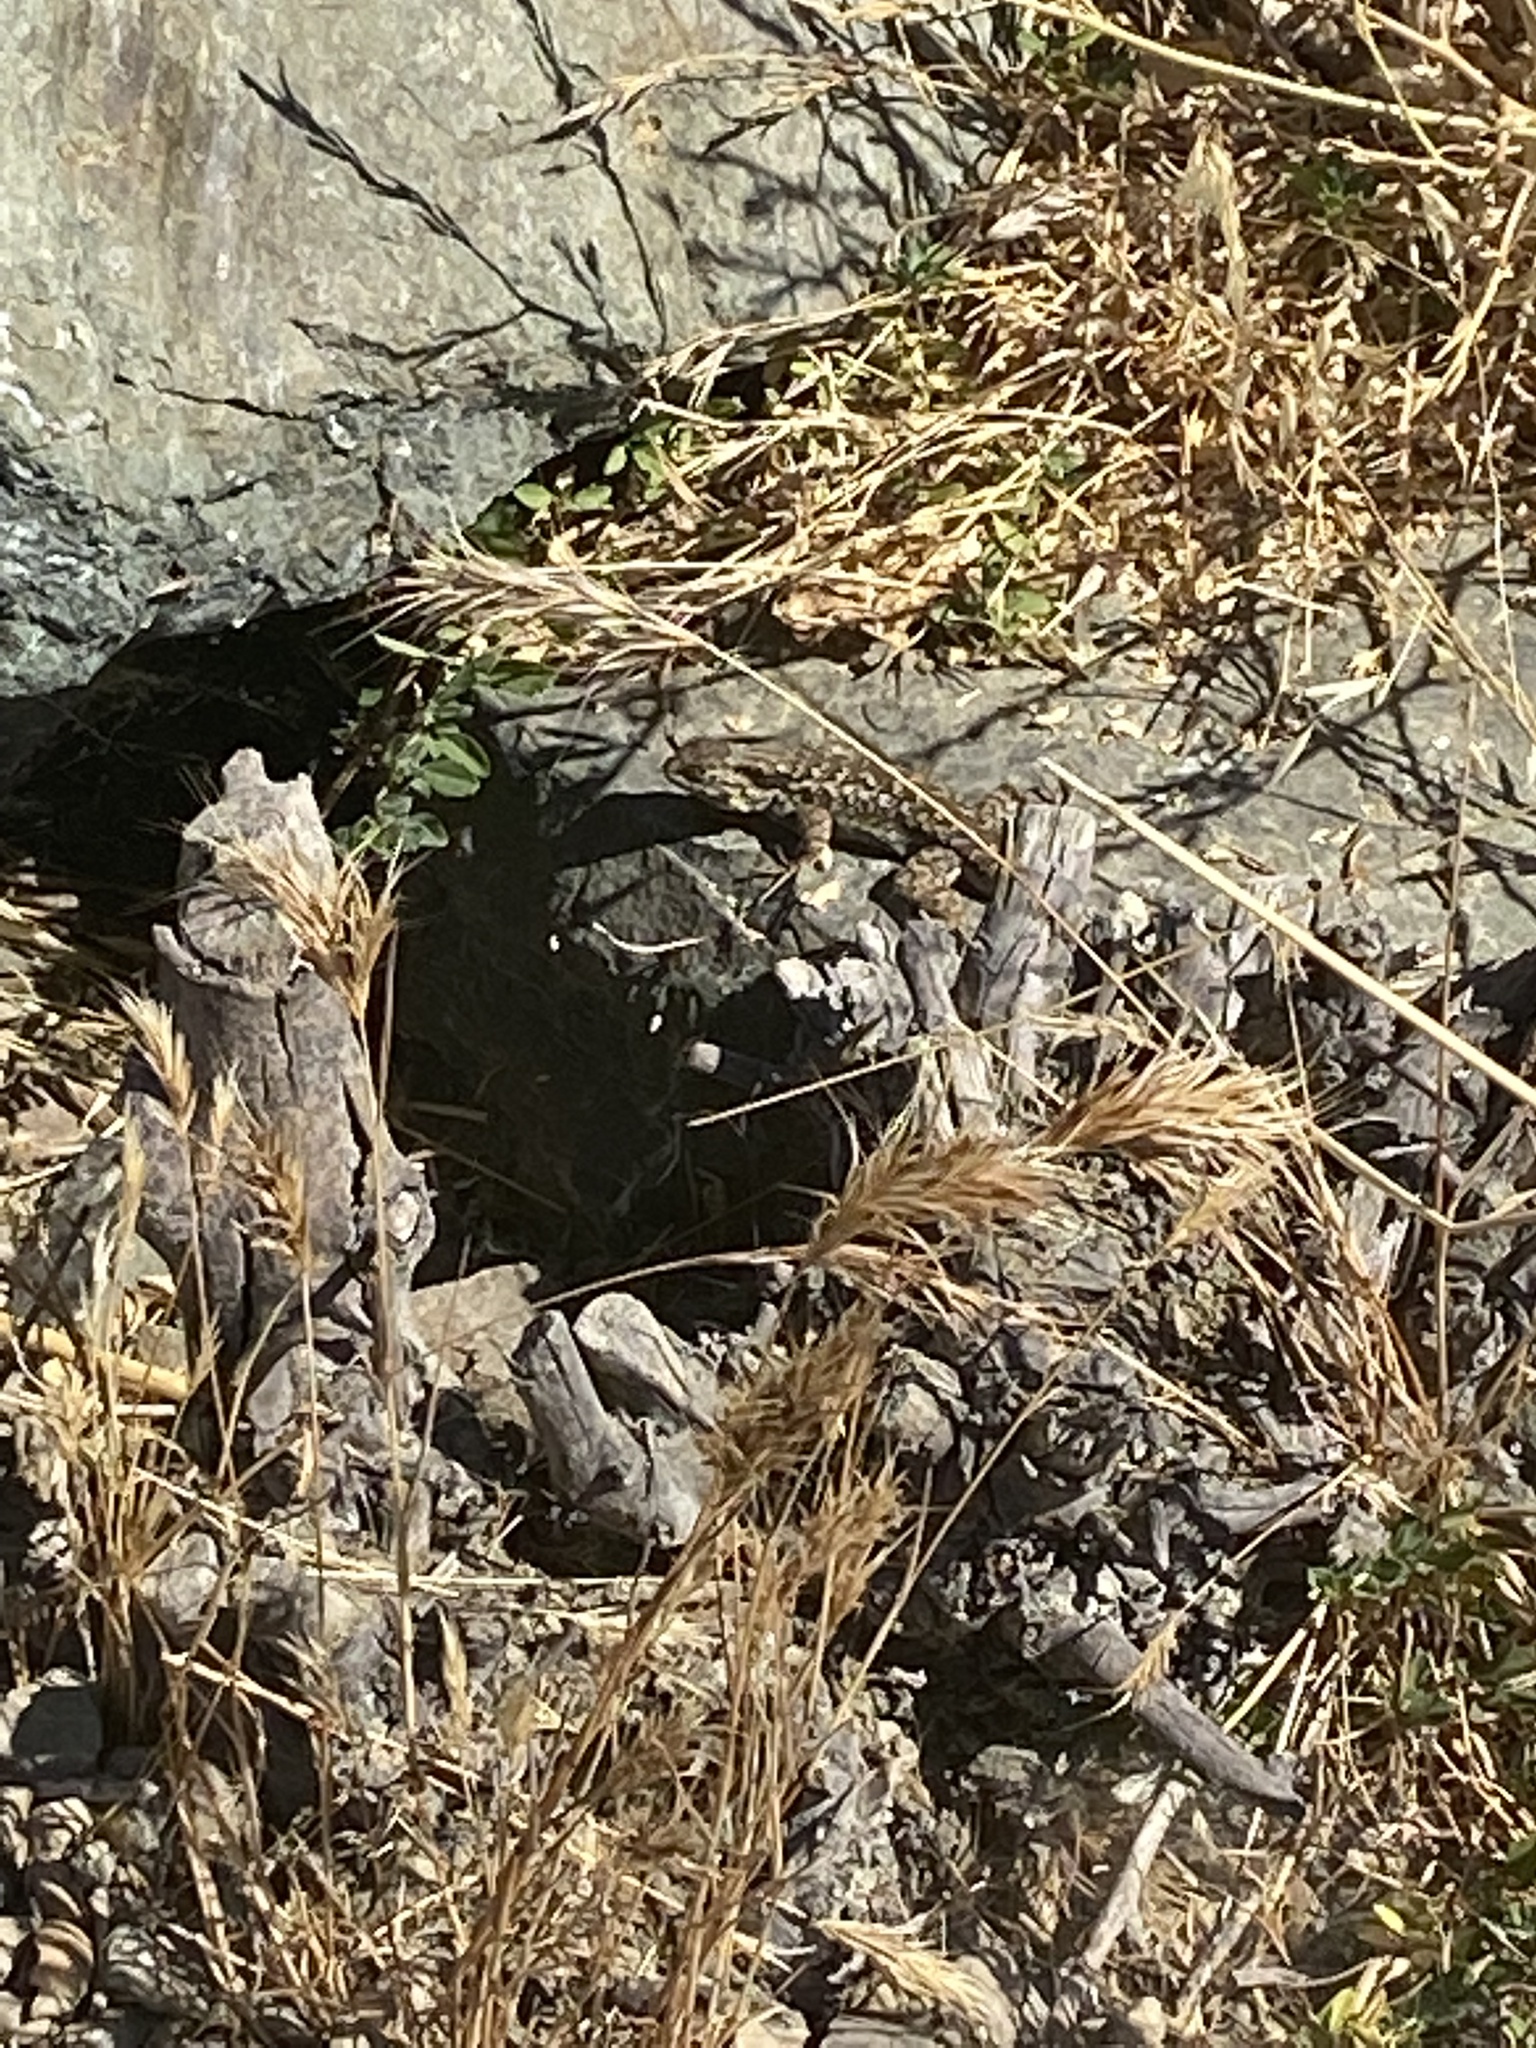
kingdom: Animalia
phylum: Chordata
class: Squamata
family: Phrynosomatidae
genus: Sceloporus
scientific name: Sceloporus occidentalis
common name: Western fence lizard
